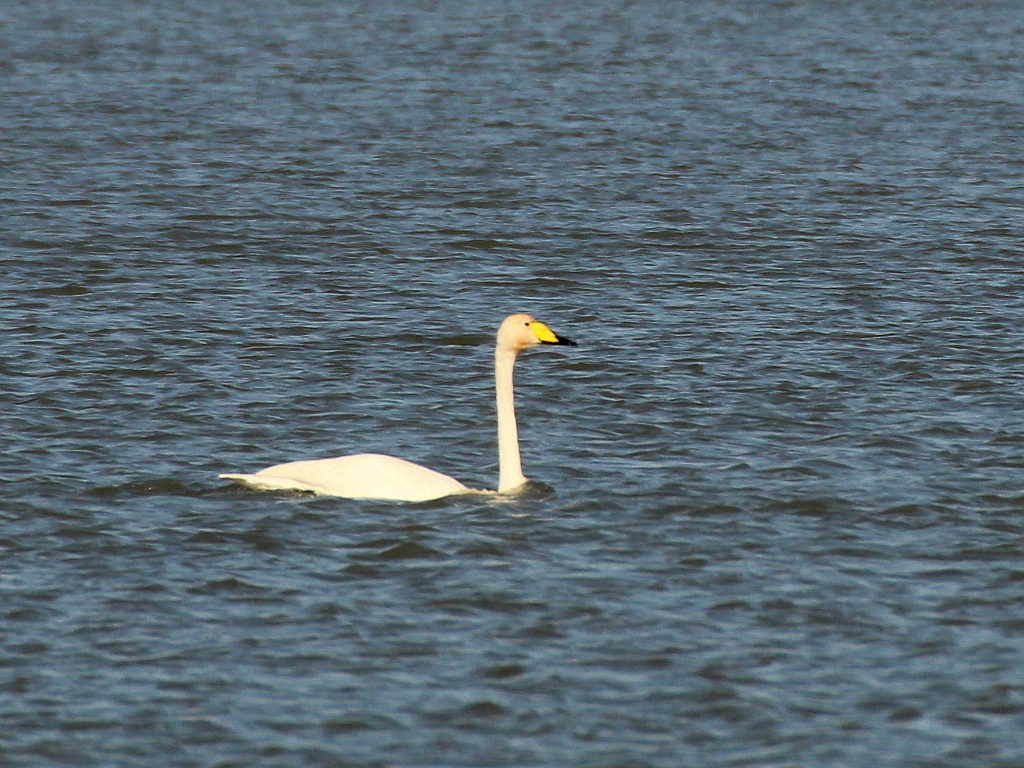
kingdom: Animalia
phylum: Chordata
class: Aves
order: Anseriformes
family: Anatidae
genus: Cygnus
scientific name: Cygnus cygnus
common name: Whooper swan
